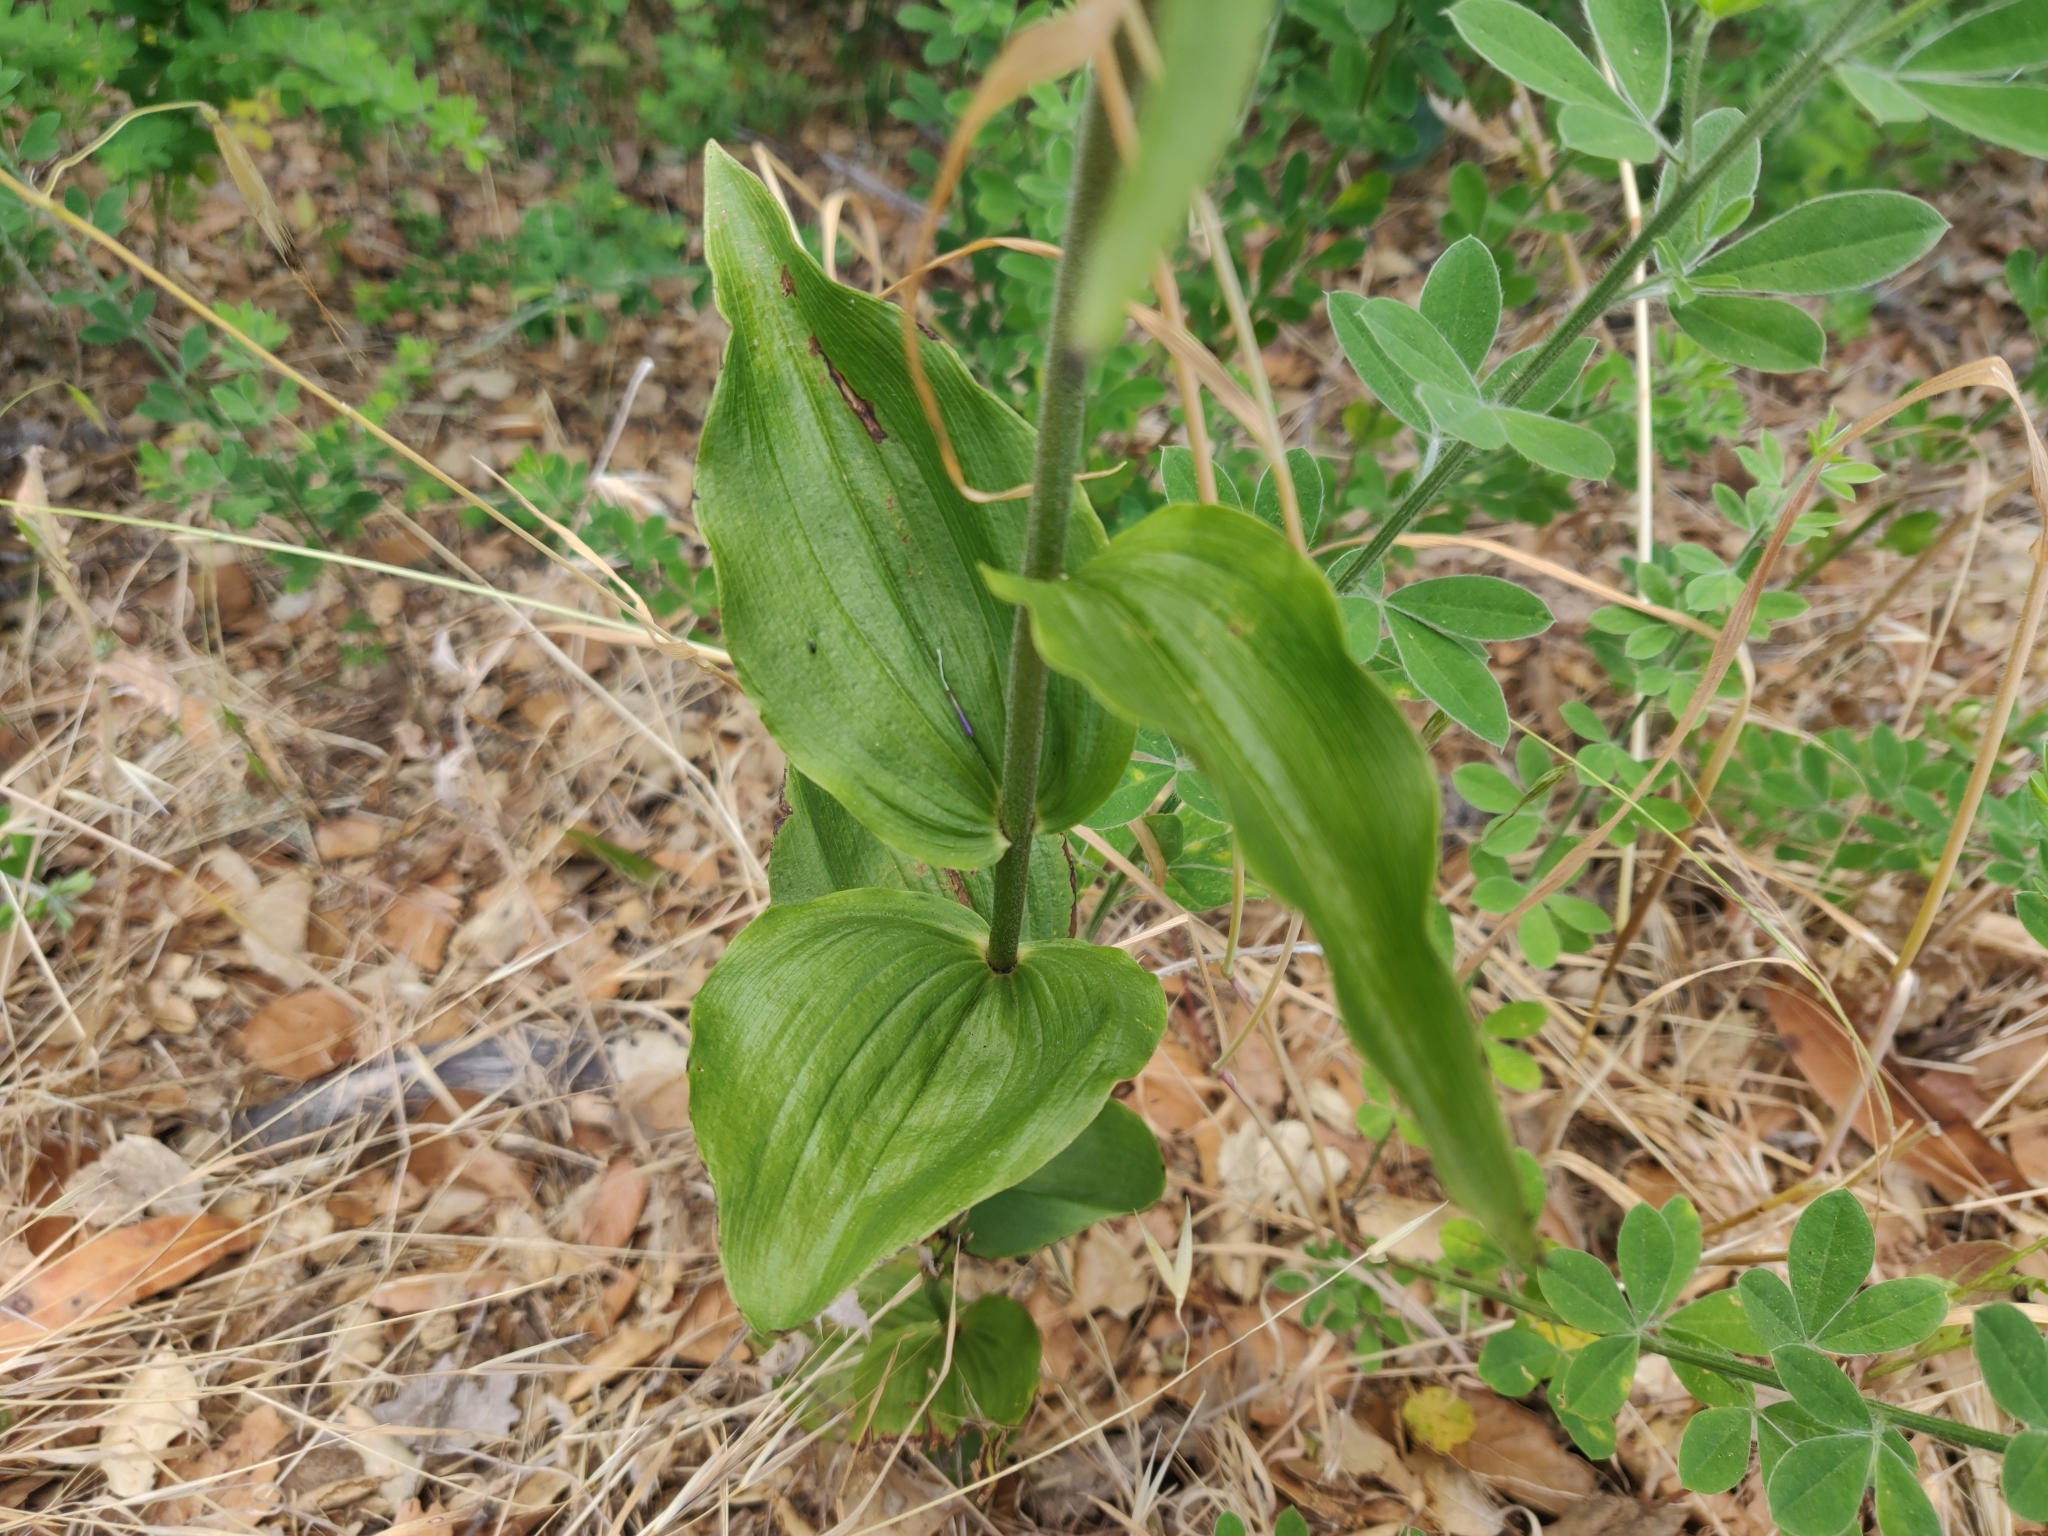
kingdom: Plantae
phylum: Tracheophyta
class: Liliopsida
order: Asparagales
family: Orchidaceae
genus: Epipactis
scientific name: Epipactis helleborine
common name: Broad-leaved helleborine
